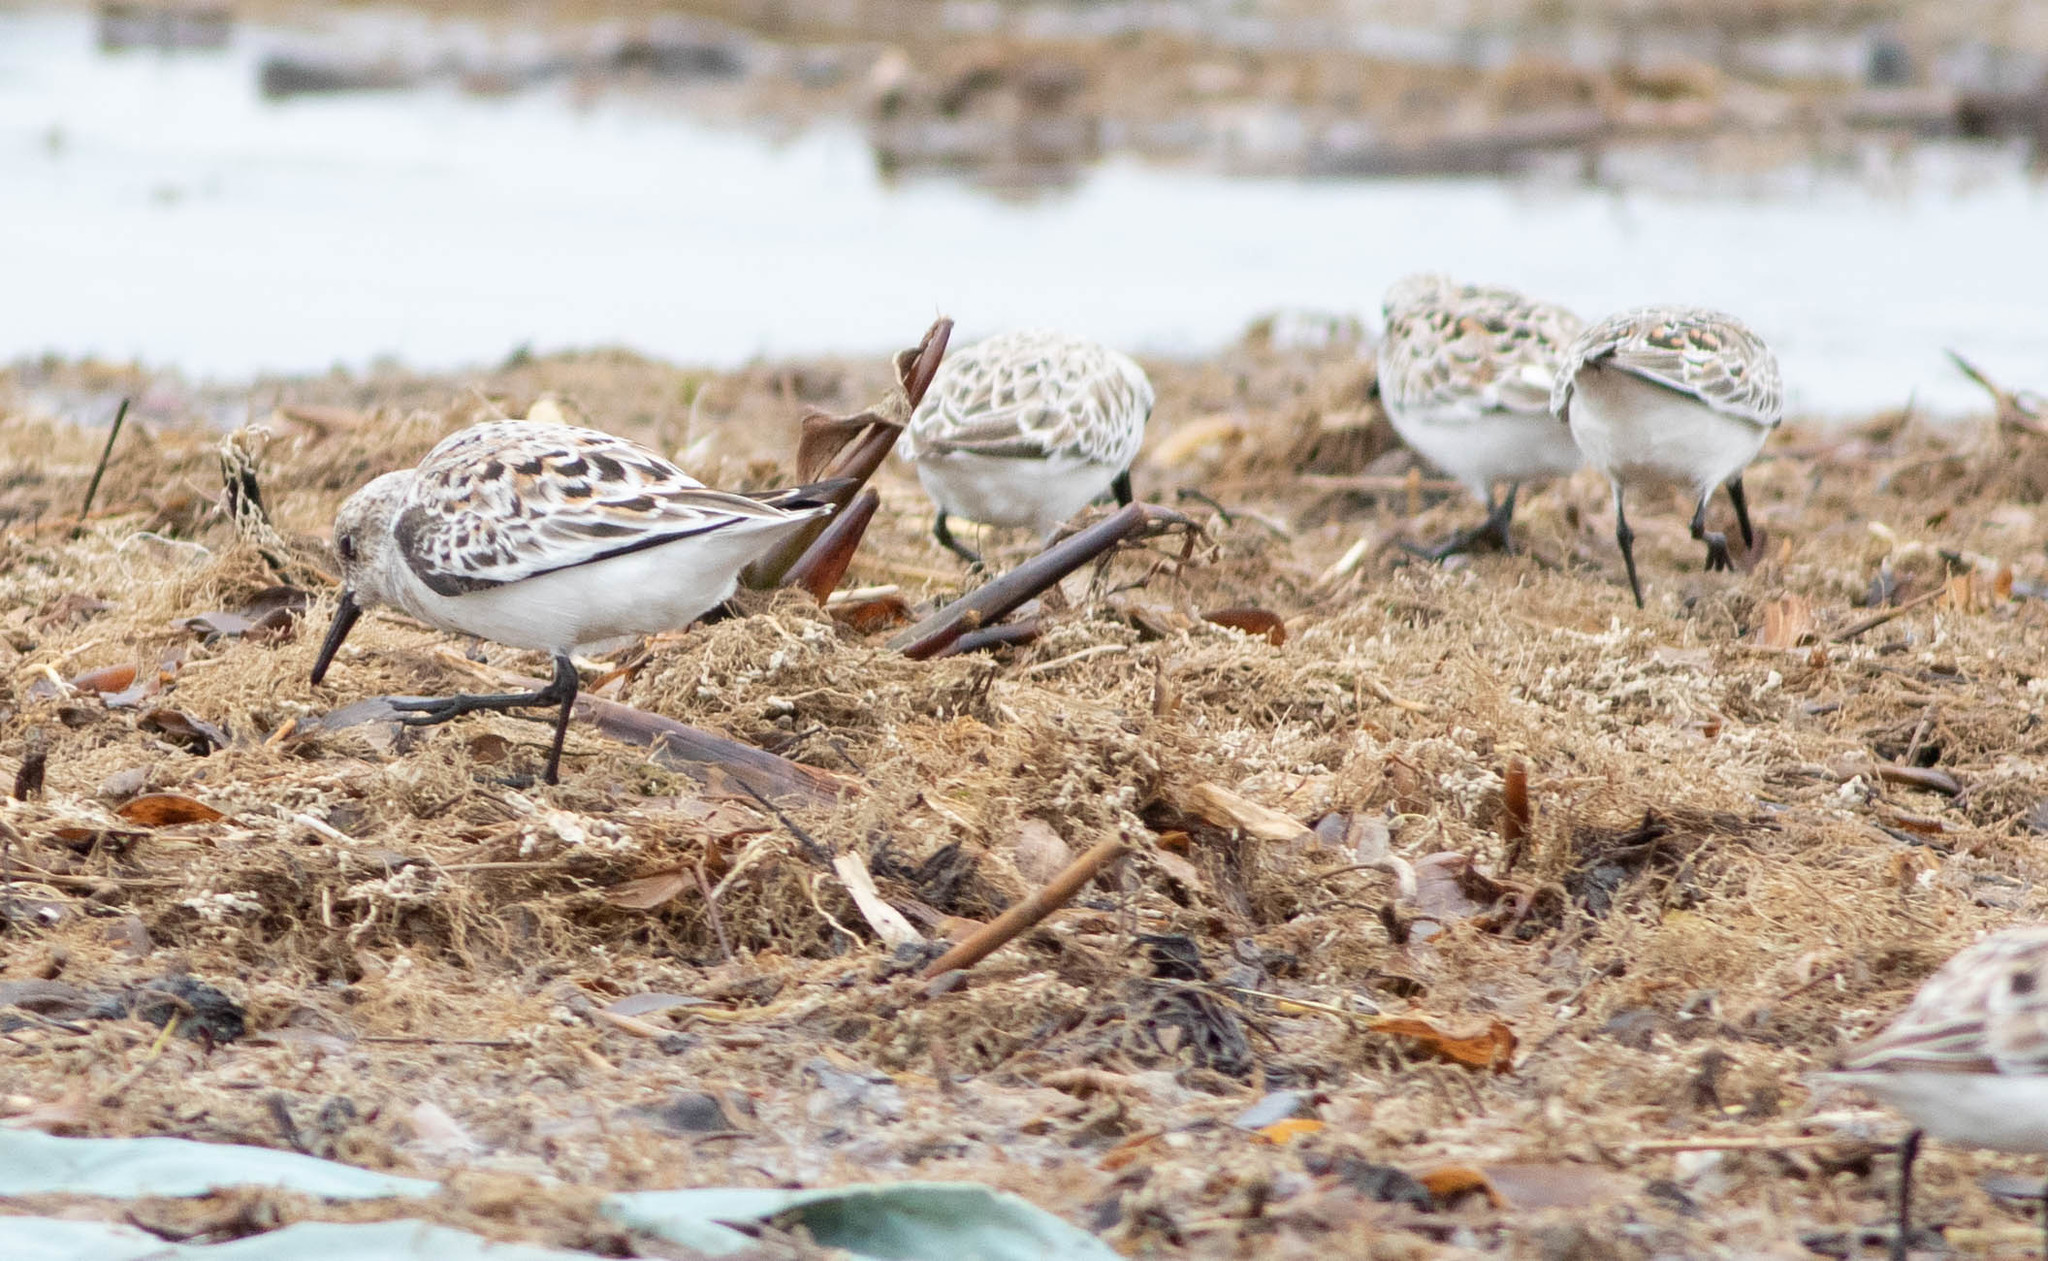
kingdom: Animalia
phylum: Chordata
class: Aves
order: Charadriiformes
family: Scolopacidae
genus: Calidris
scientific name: Calidris alba
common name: Sanderling
